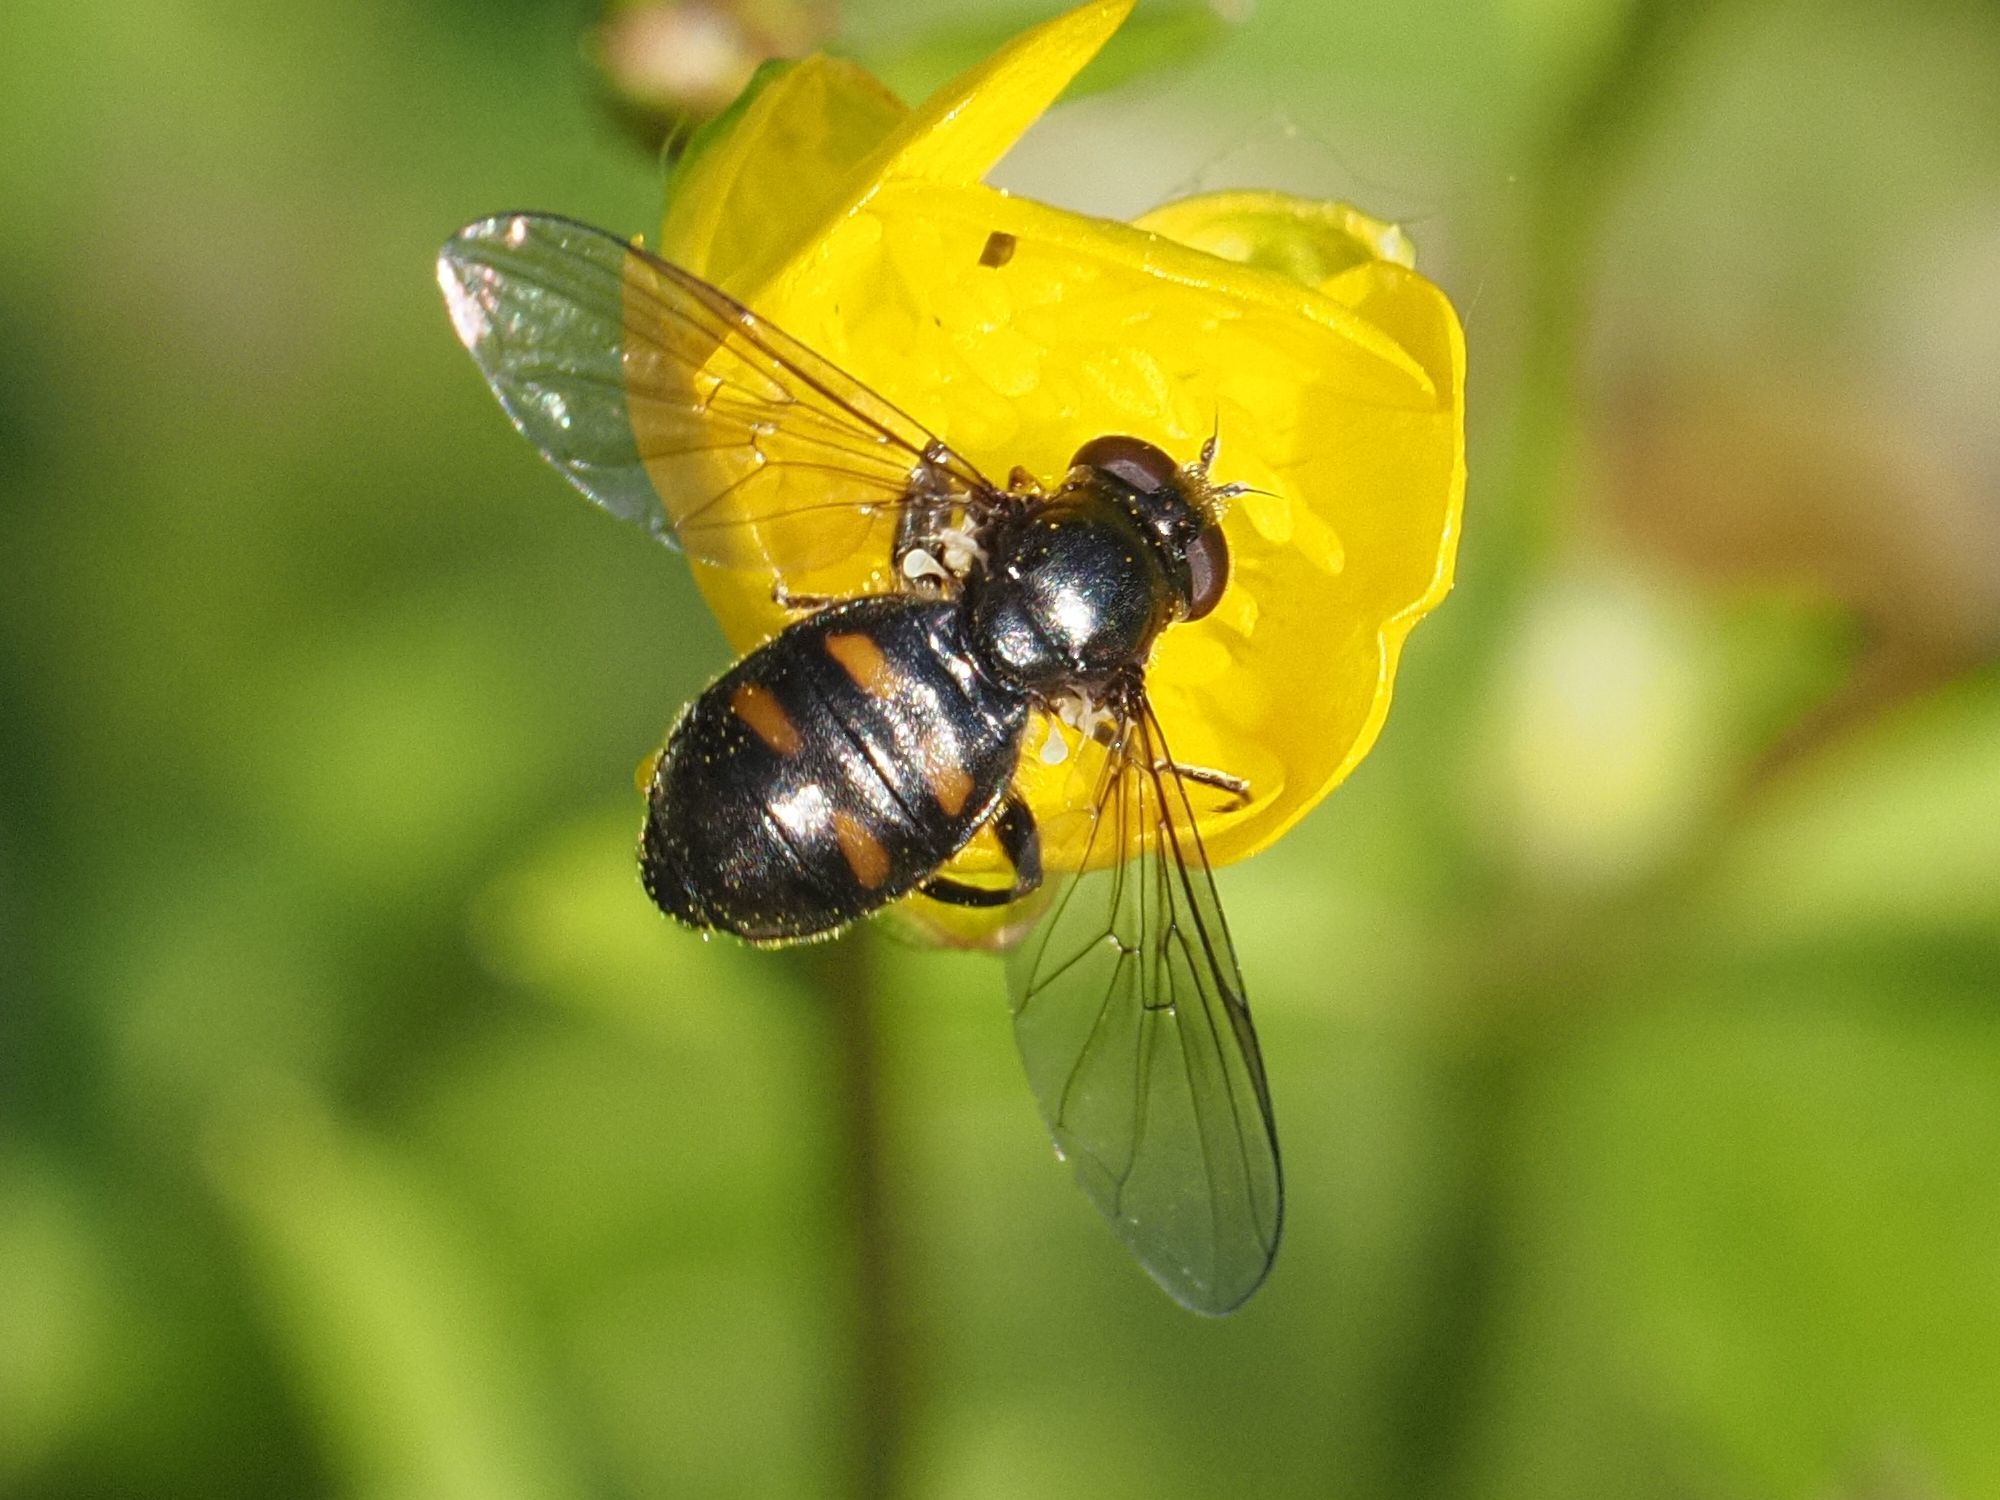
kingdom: Animalia
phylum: Arthropoda
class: Insecta
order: Diptera
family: Syrphidae
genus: Pipiza
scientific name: Pipiza quadrimaculata
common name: Four-spotted pipiza
